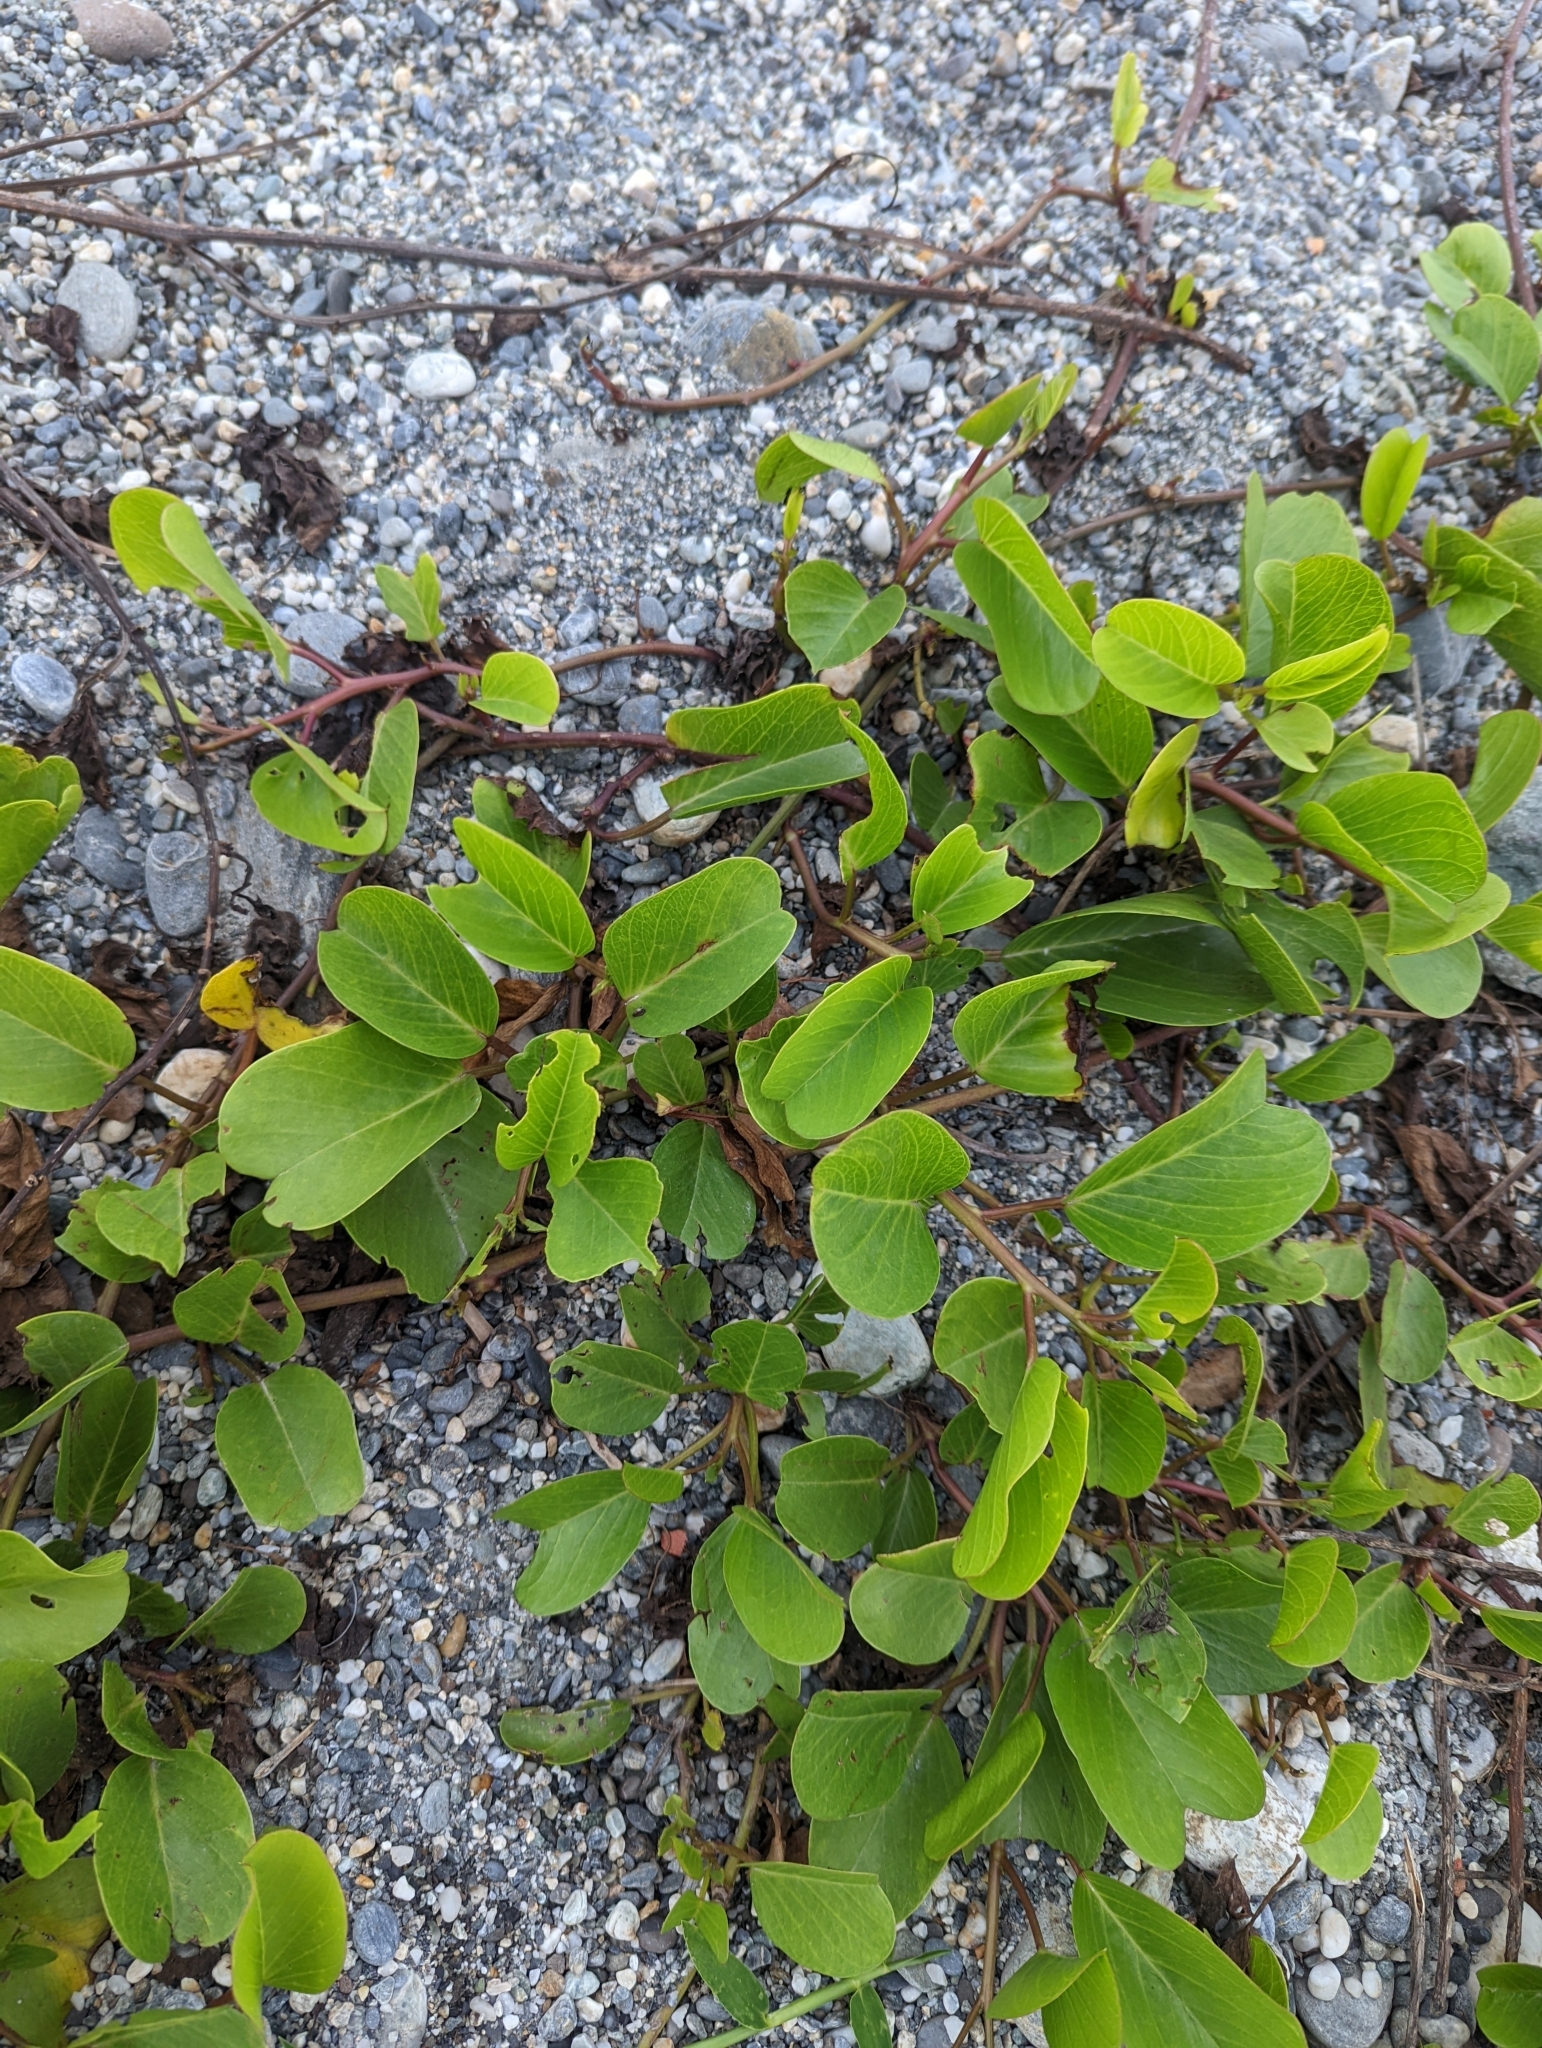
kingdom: Plantae
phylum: Tracheophyta
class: Magnoliopsida
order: Solanales
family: Convolvulaceae
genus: Ipomoea
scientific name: Ipomoea pes-caprae
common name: Beach morning glory
